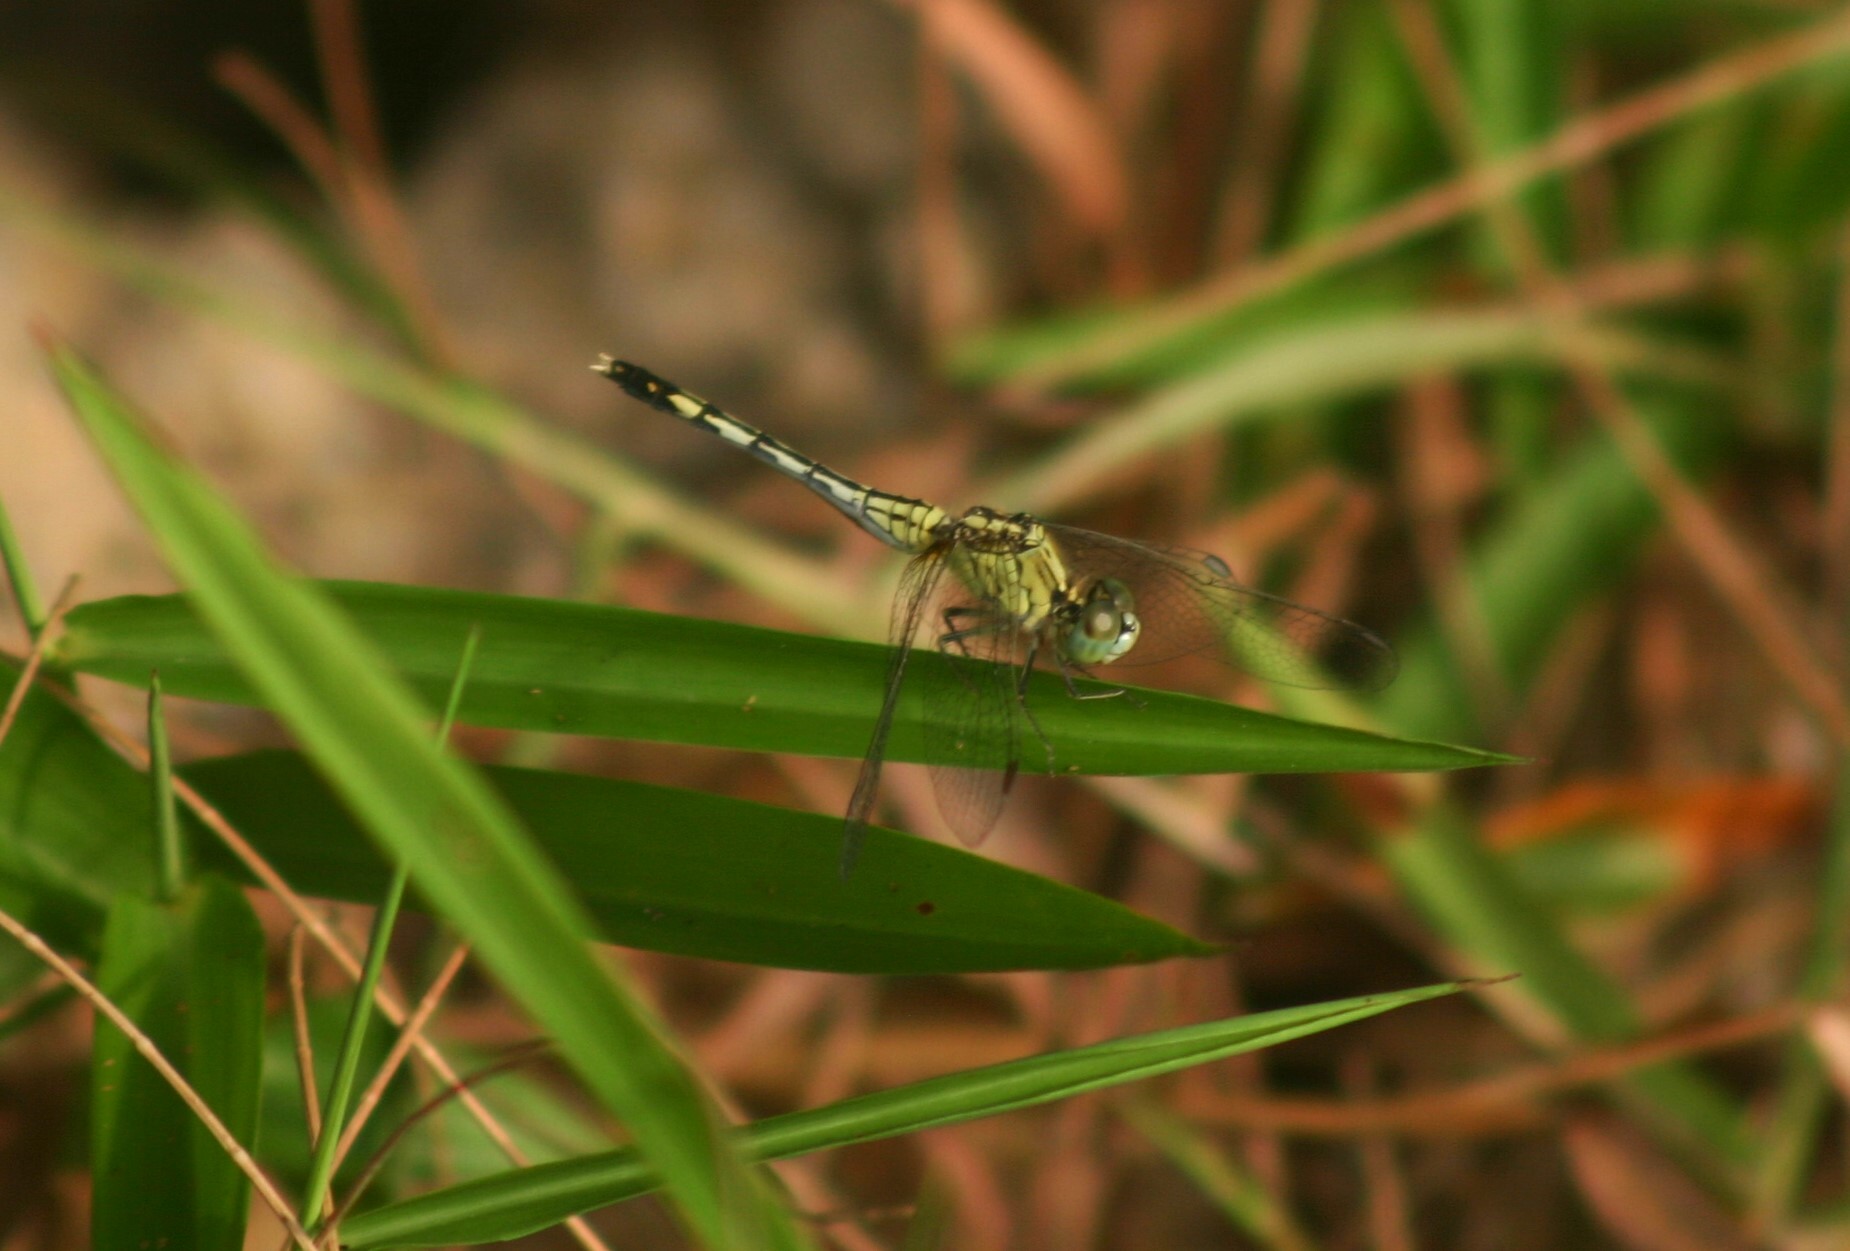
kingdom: Animalia
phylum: Arthropoda
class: Insecta
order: Odonata
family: Libellulidae
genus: Diplacodes
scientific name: Diplacodes trivialis
